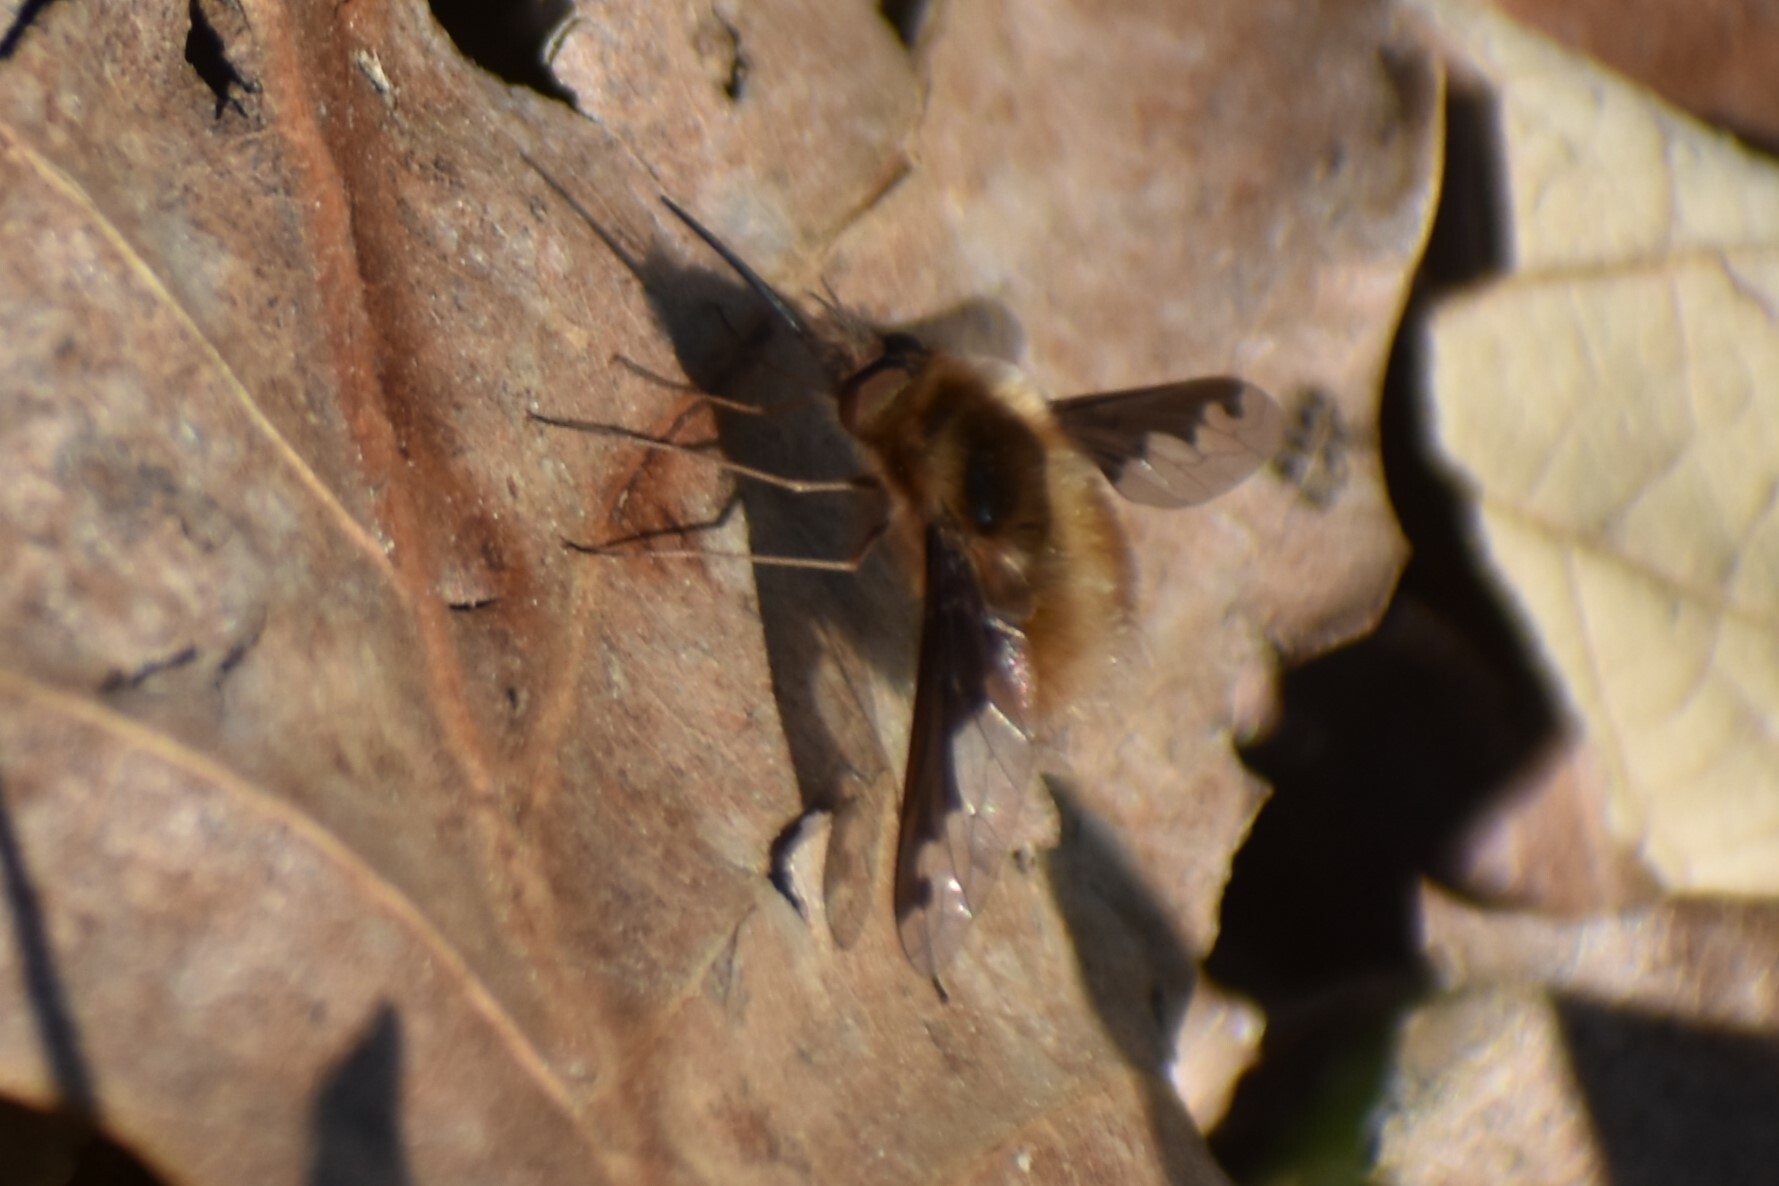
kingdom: Animalia
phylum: Arthropoda
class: Insecta
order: Diptera
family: Bombyliidae
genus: Bombylius
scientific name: Bombylius major
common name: Bee fly
